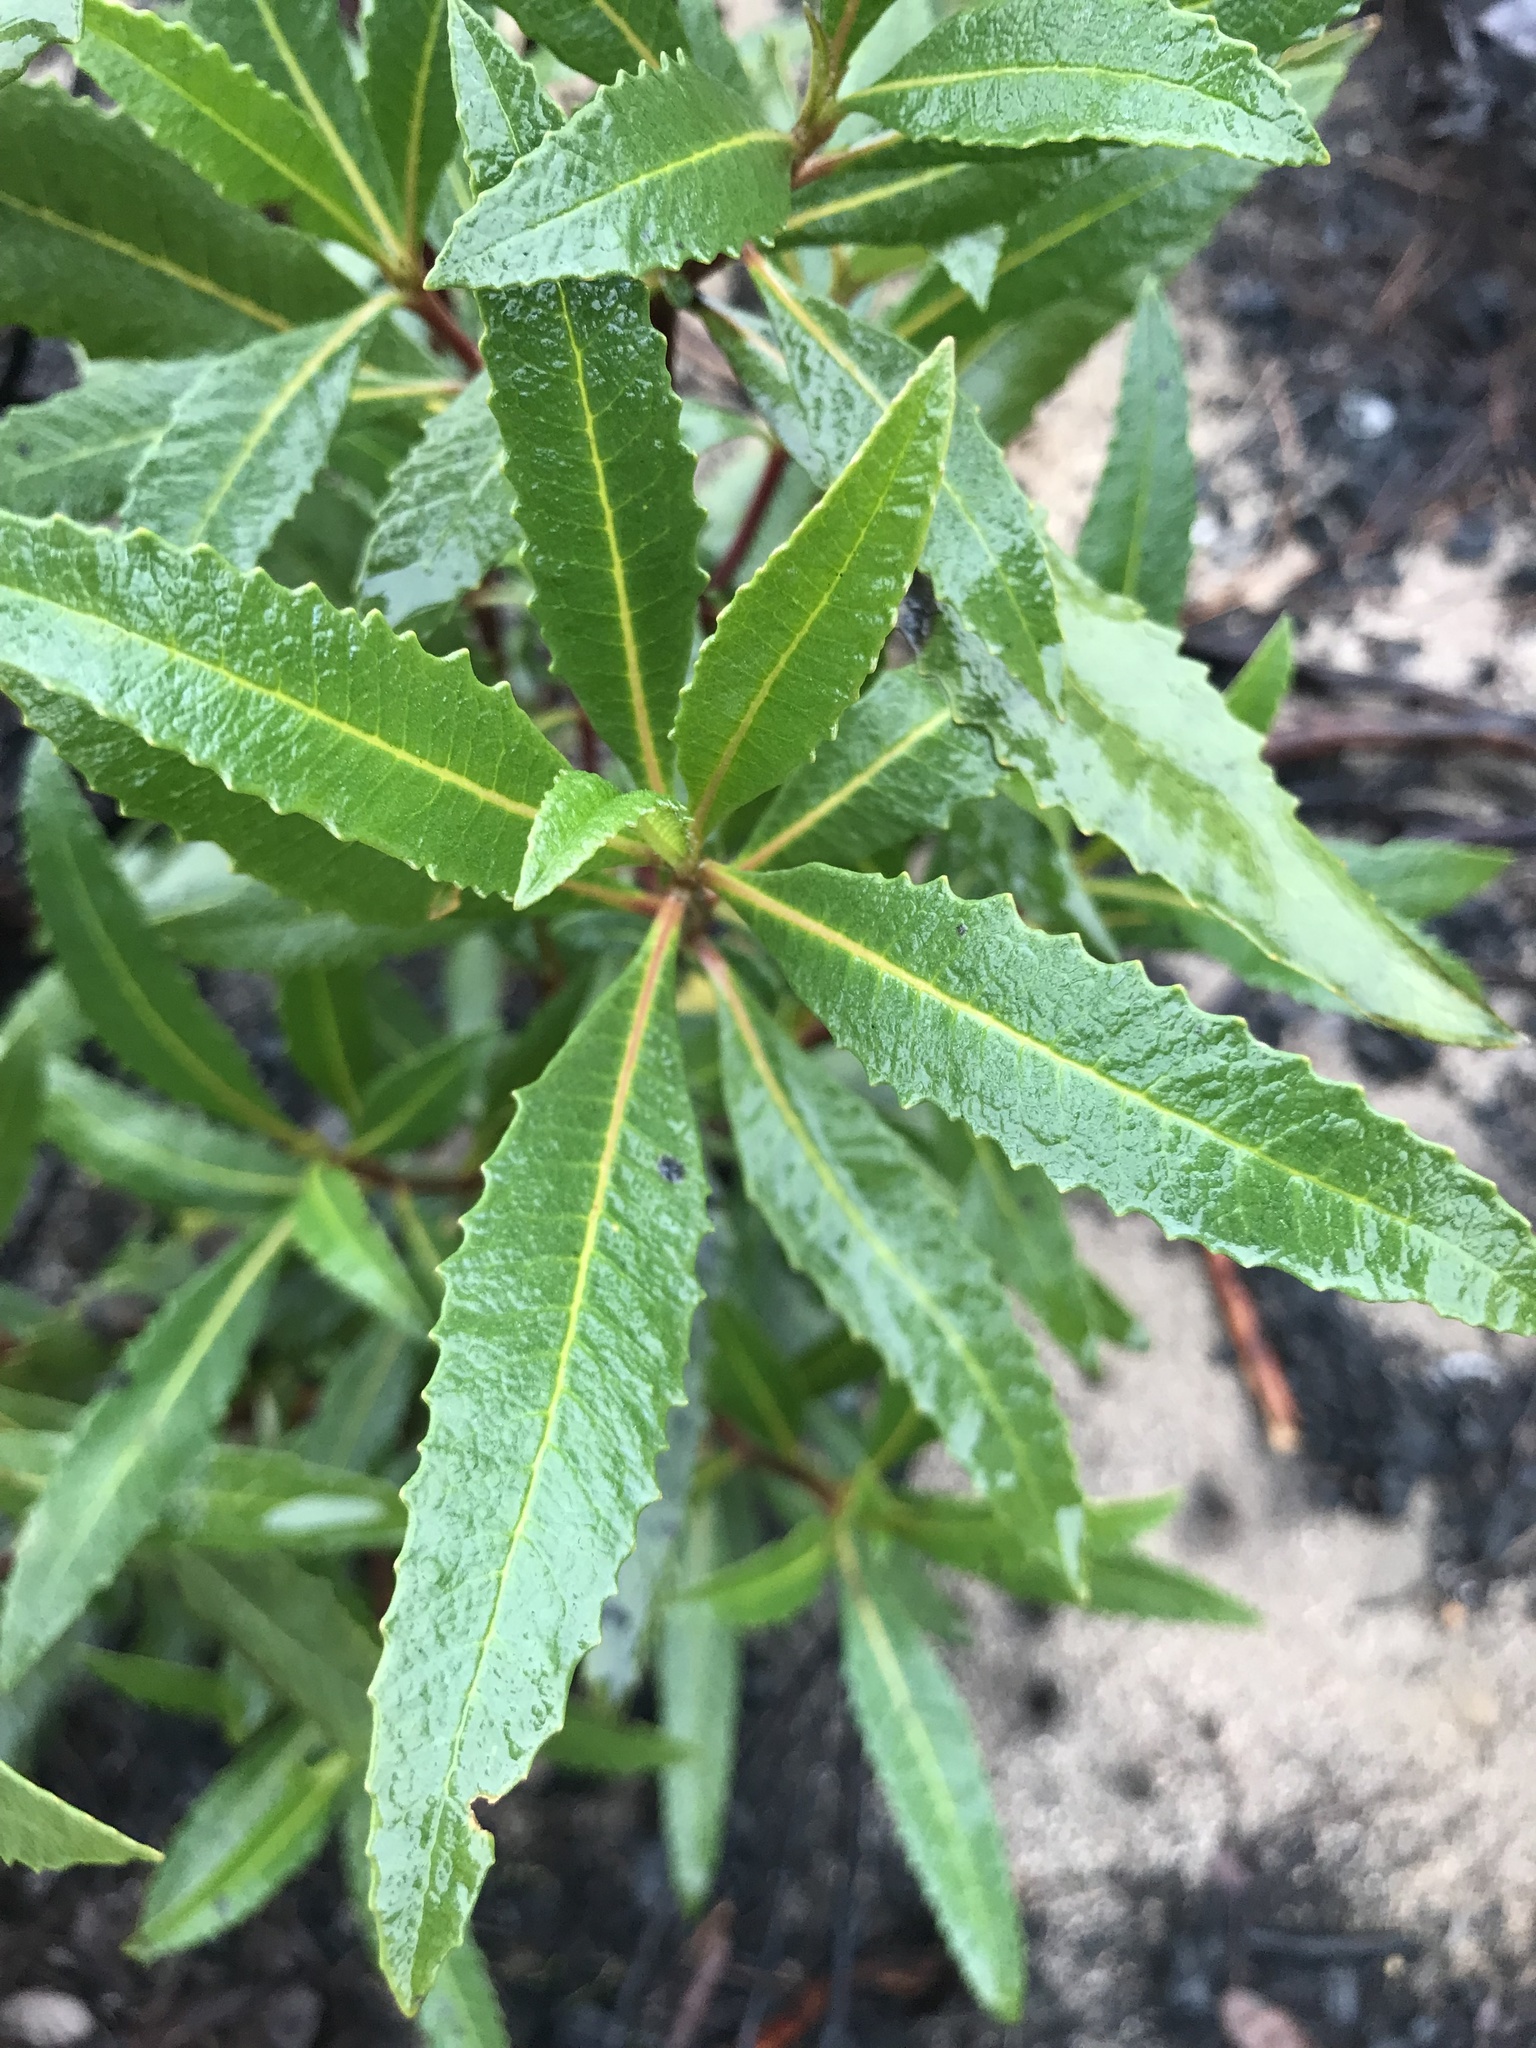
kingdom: Plantae
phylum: Tracheophyta
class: Magnoliopsida
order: Boraginales
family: Namaceae
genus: Eriodictyon
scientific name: Eriodictyon californicum
